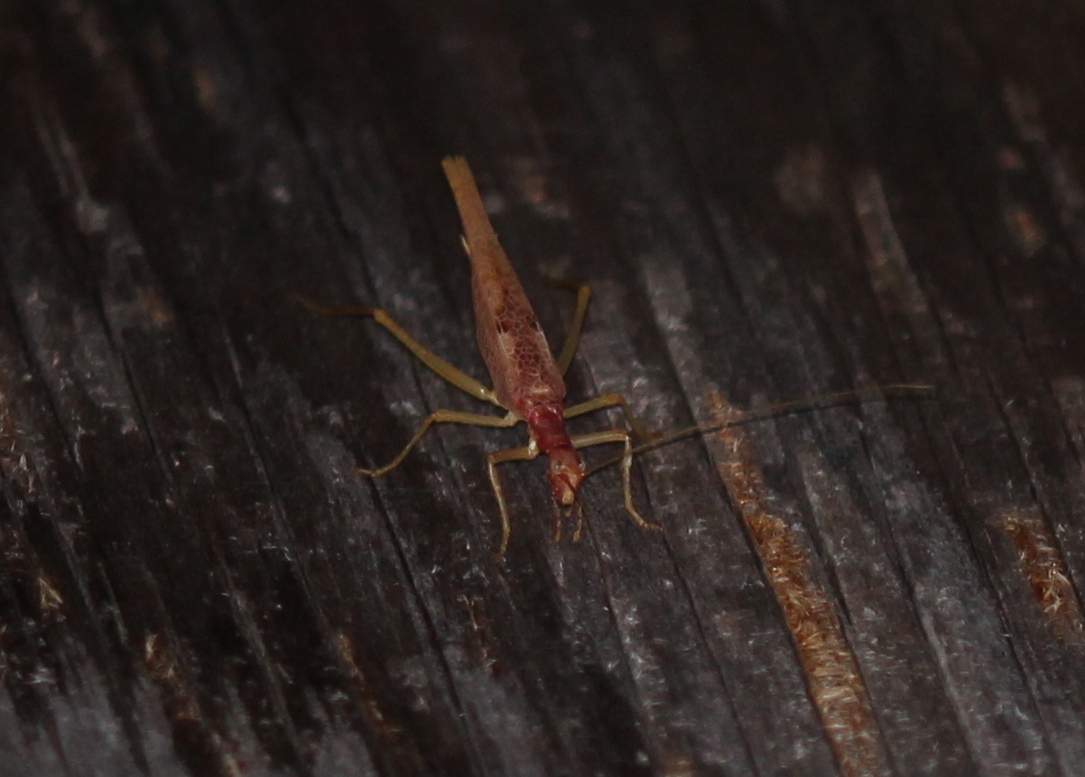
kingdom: Animalia
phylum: Arthropoda
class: Insecta
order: Orthoptera
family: Gryllidae
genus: Neoxabea
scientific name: Neoxabea bipunctata
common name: Two-spotted tree cricket
